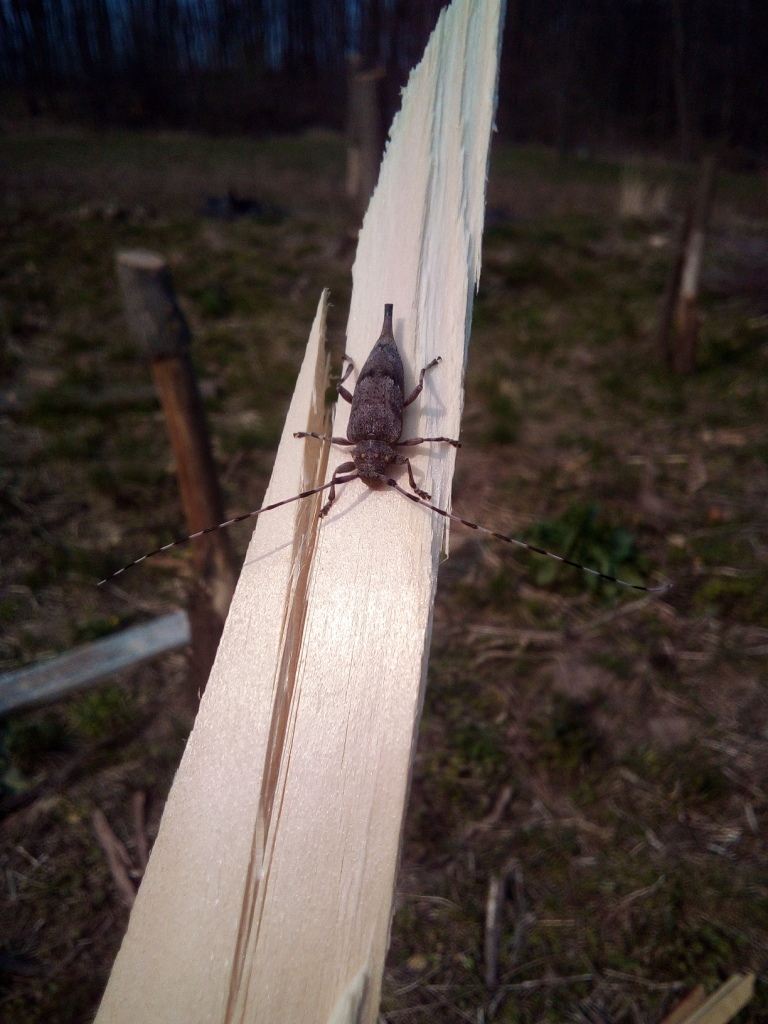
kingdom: Animalia
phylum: Arthropoda
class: Insecta
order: Coleoptera
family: Cerambycidae
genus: Acanthocinus
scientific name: Acanthocinus aedilis
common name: Timberman beetle
